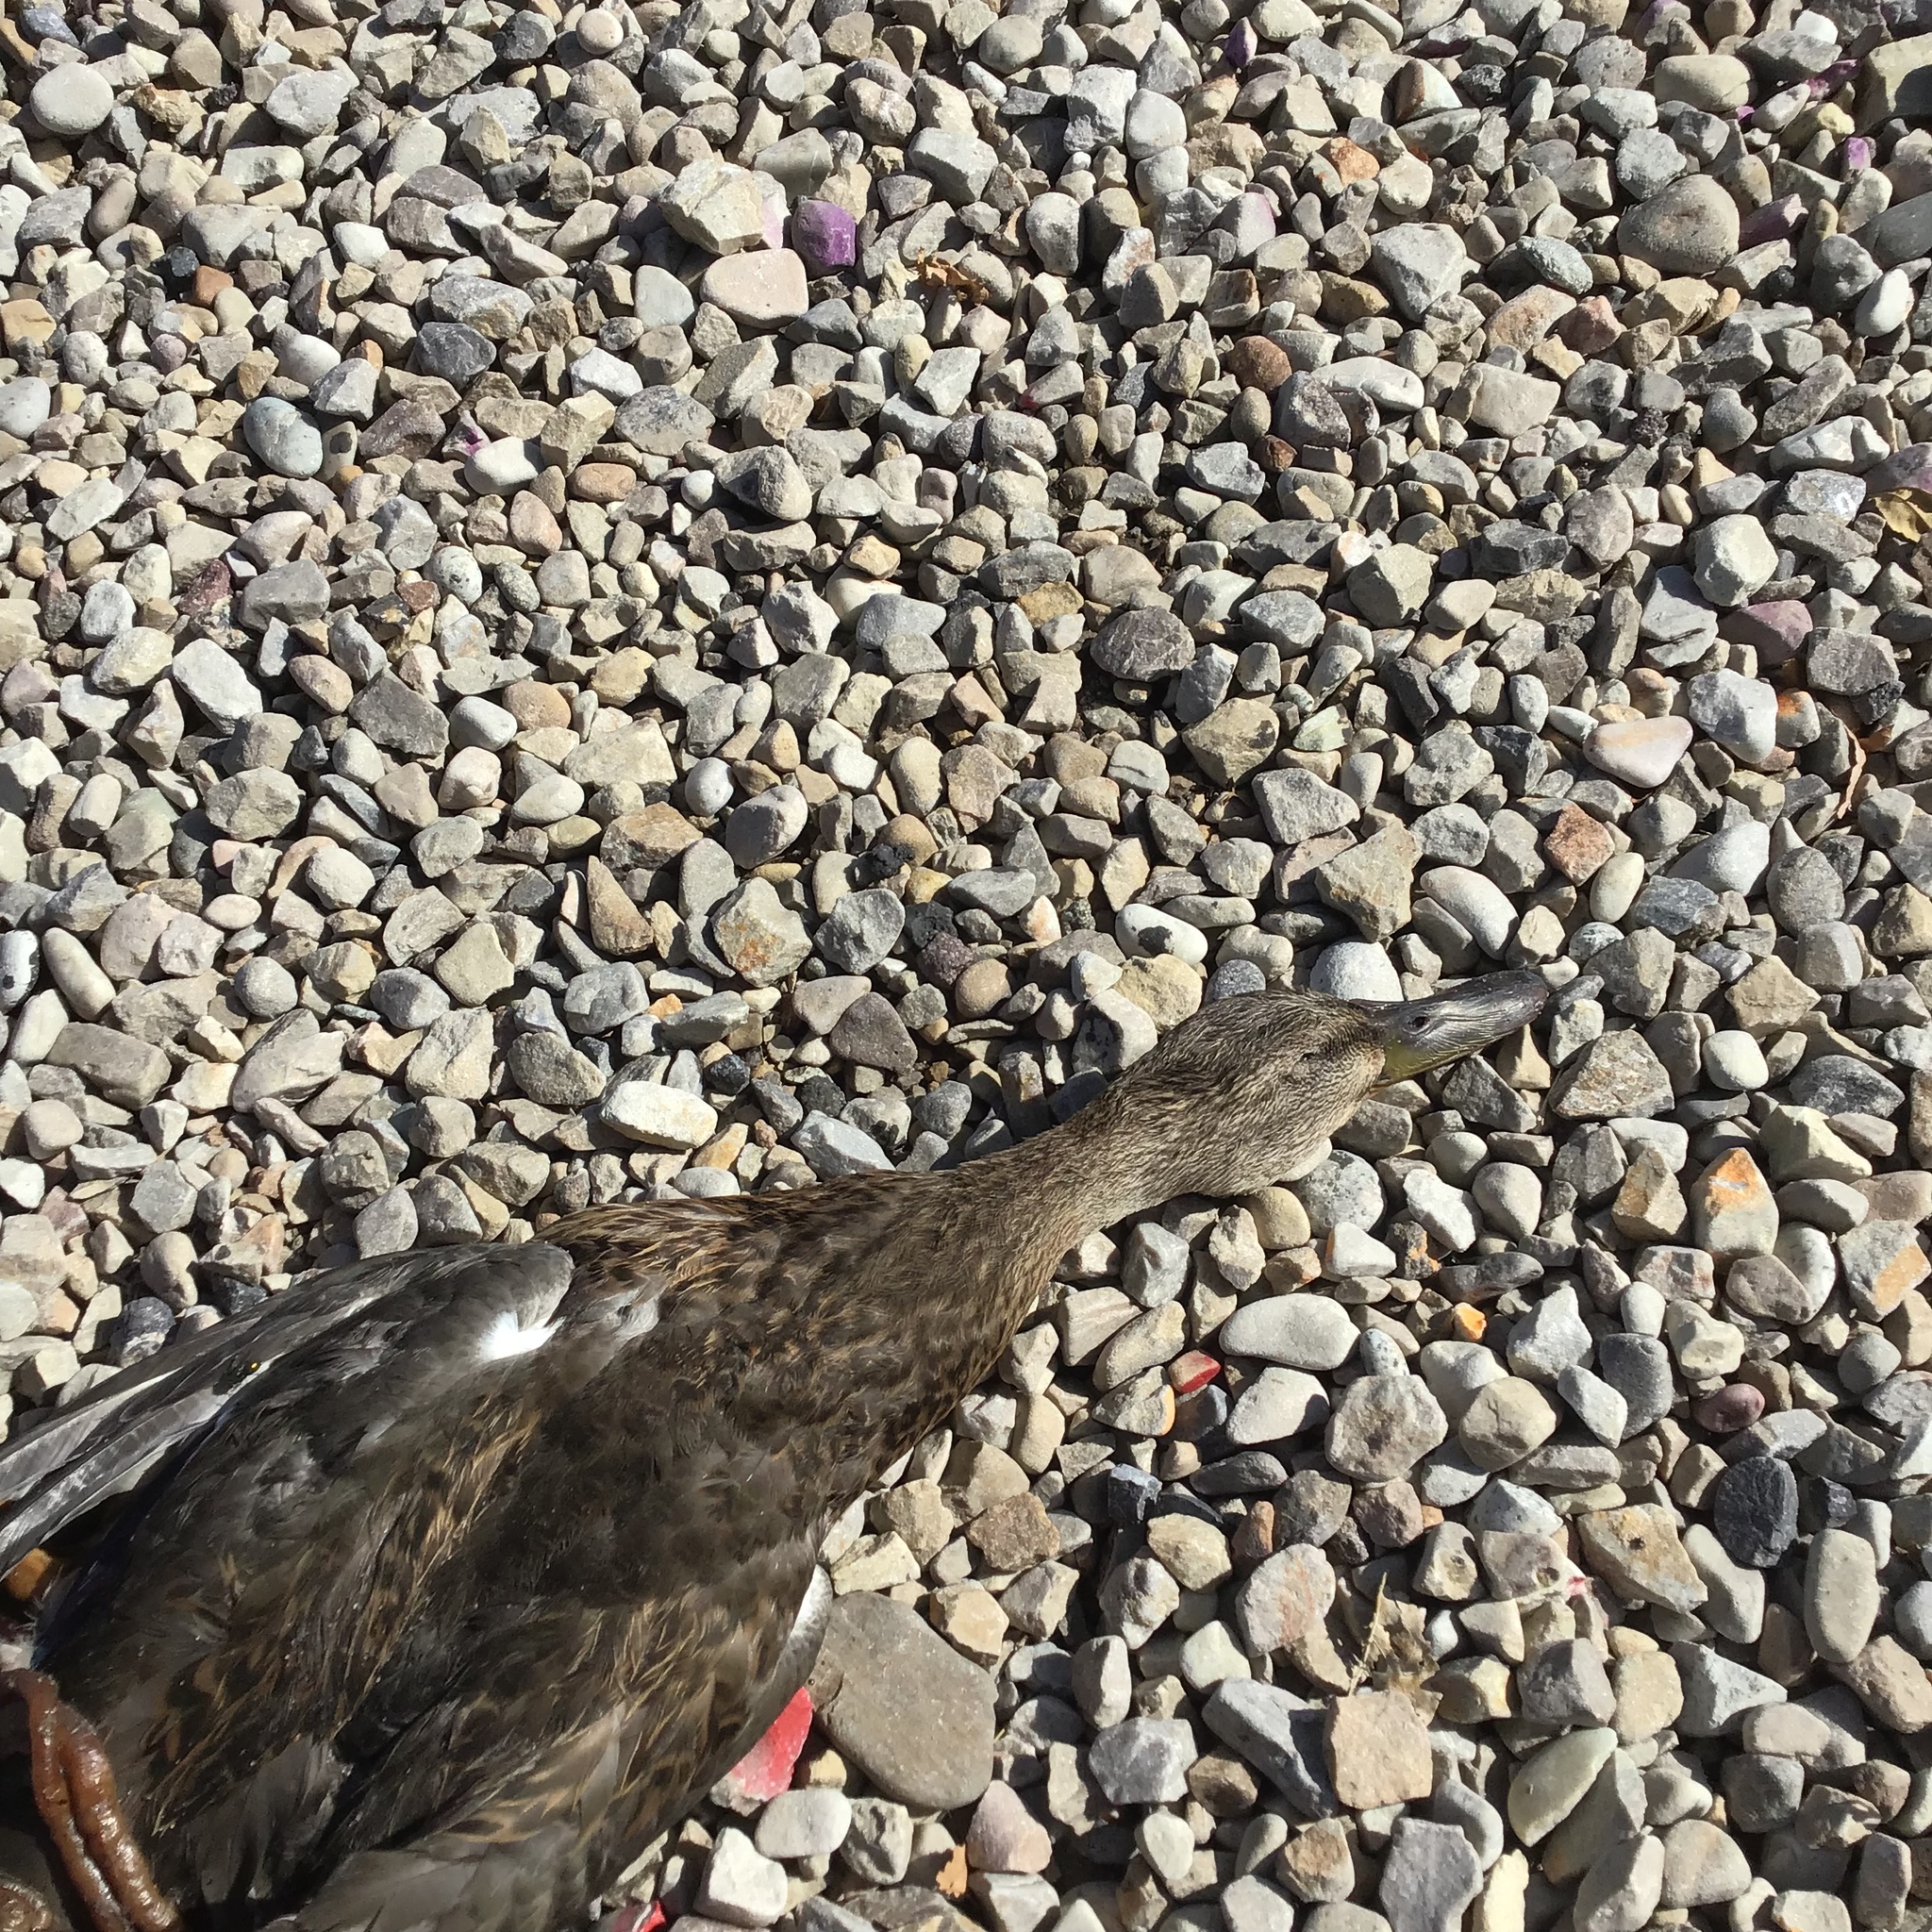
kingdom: Animalia
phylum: Chordata
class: Aves
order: Anseriformes
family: Anatidae
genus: Anas
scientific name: Anas platyrhynchos
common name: Mallard
